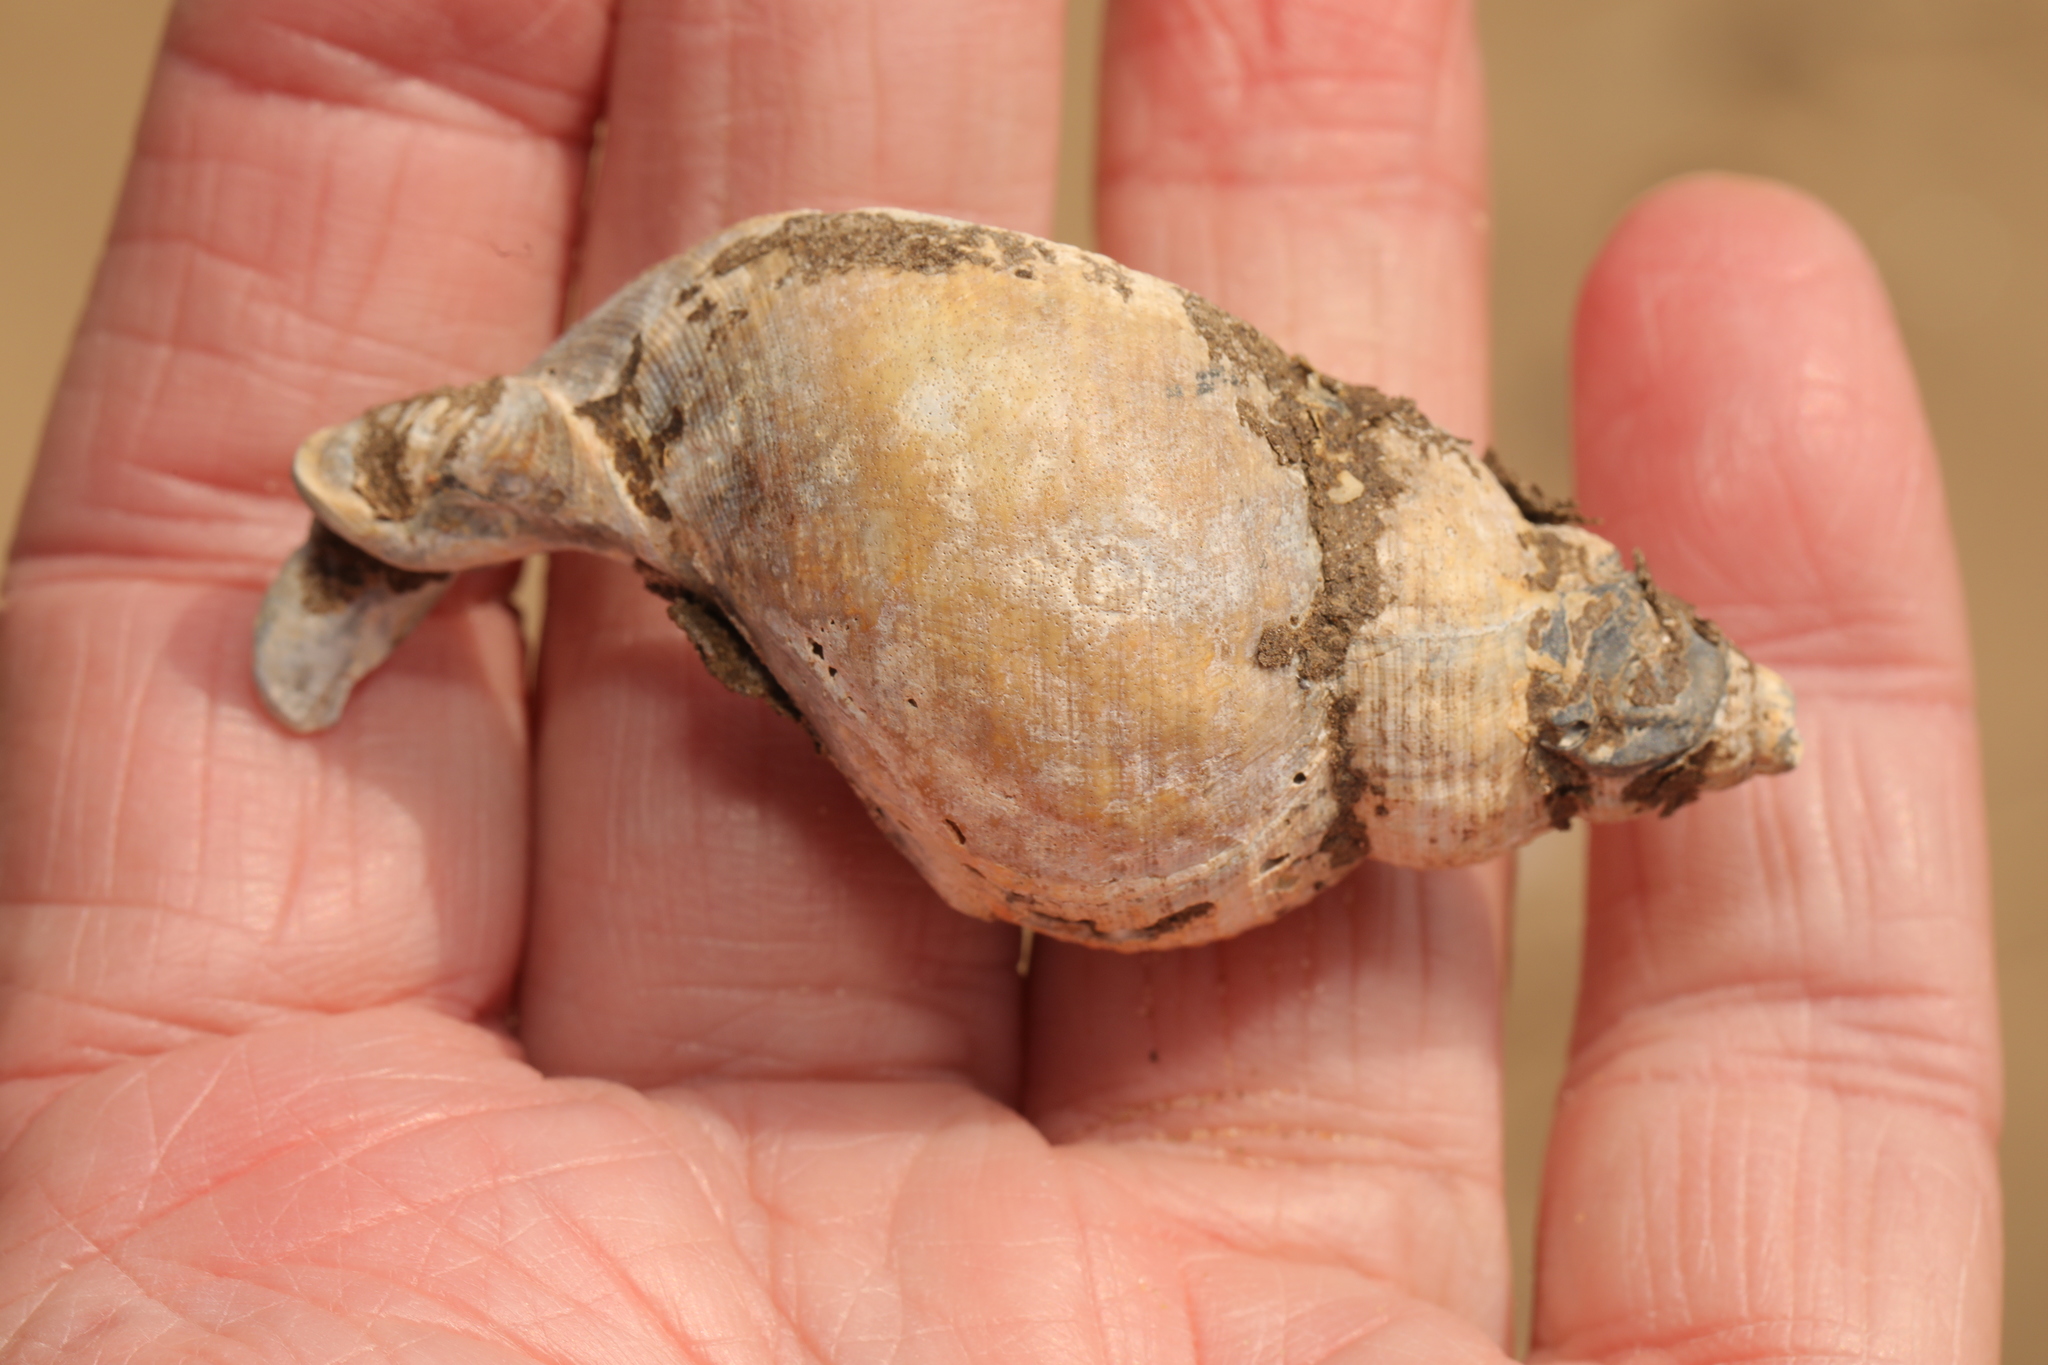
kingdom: Animalia
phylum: Mollusca
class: Gastropoda
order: Neogastropoda
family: Buccinidae
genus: Buccinum
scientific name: Buccinum undatum
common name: Common whelk
